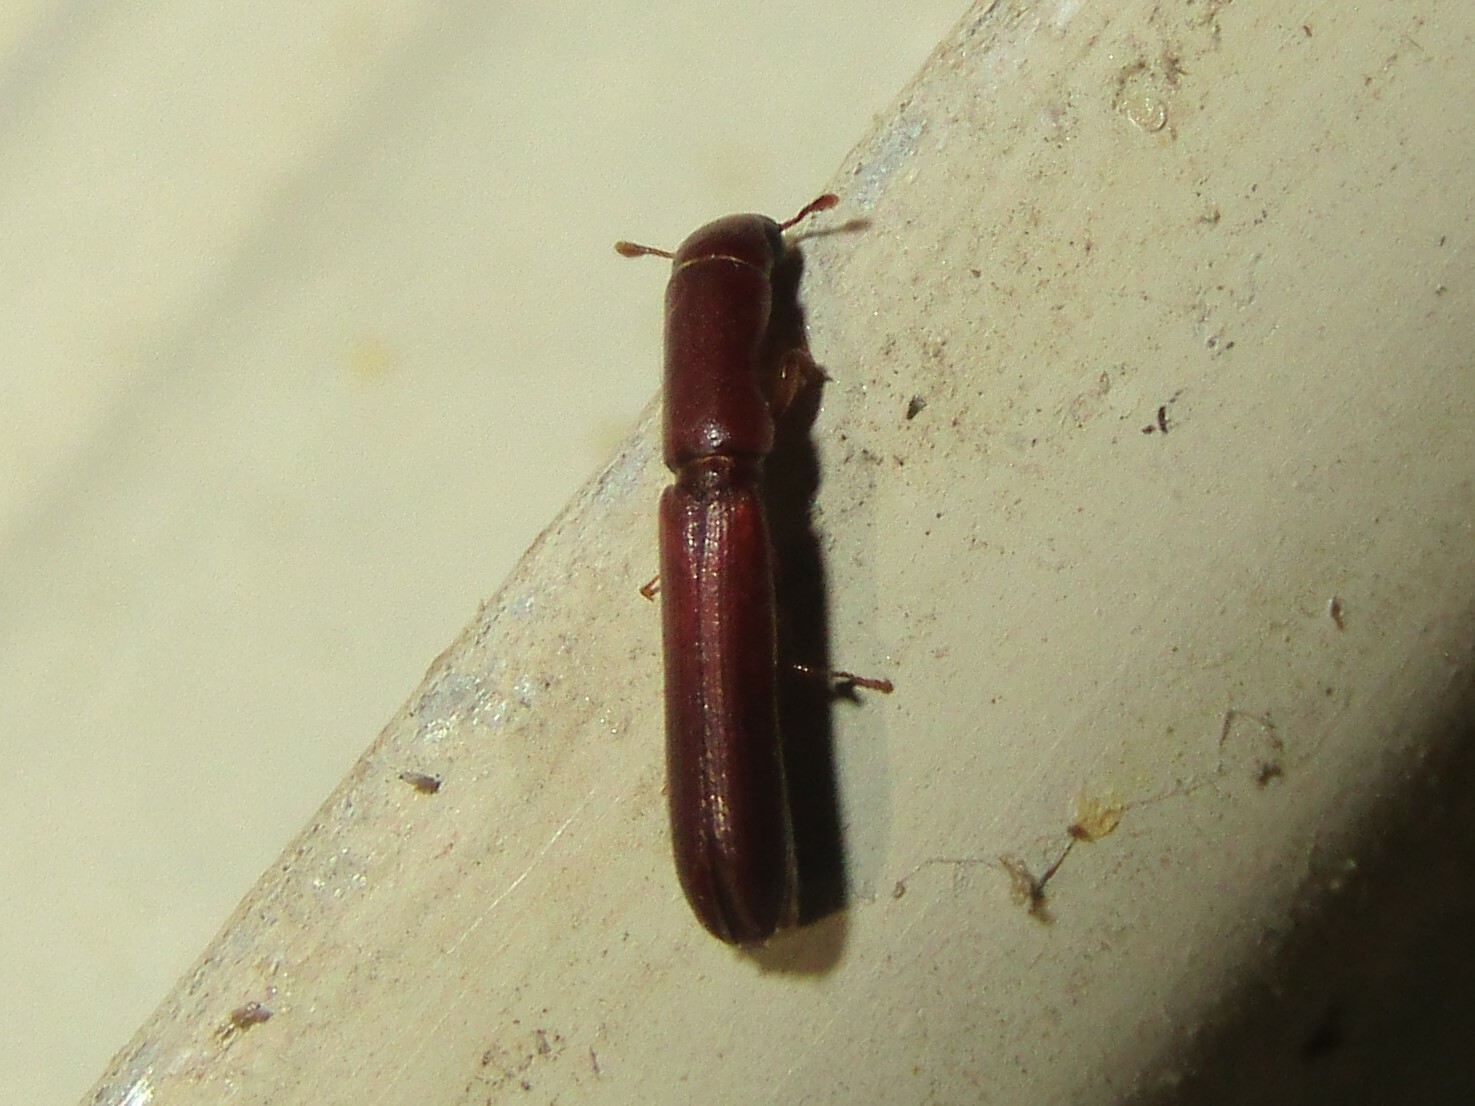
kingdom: Animalia
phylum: Arthropoda
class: Insecta
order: Coleoptera
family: Zopheridae
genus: Nematidium
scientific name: Nematidium filiforme
